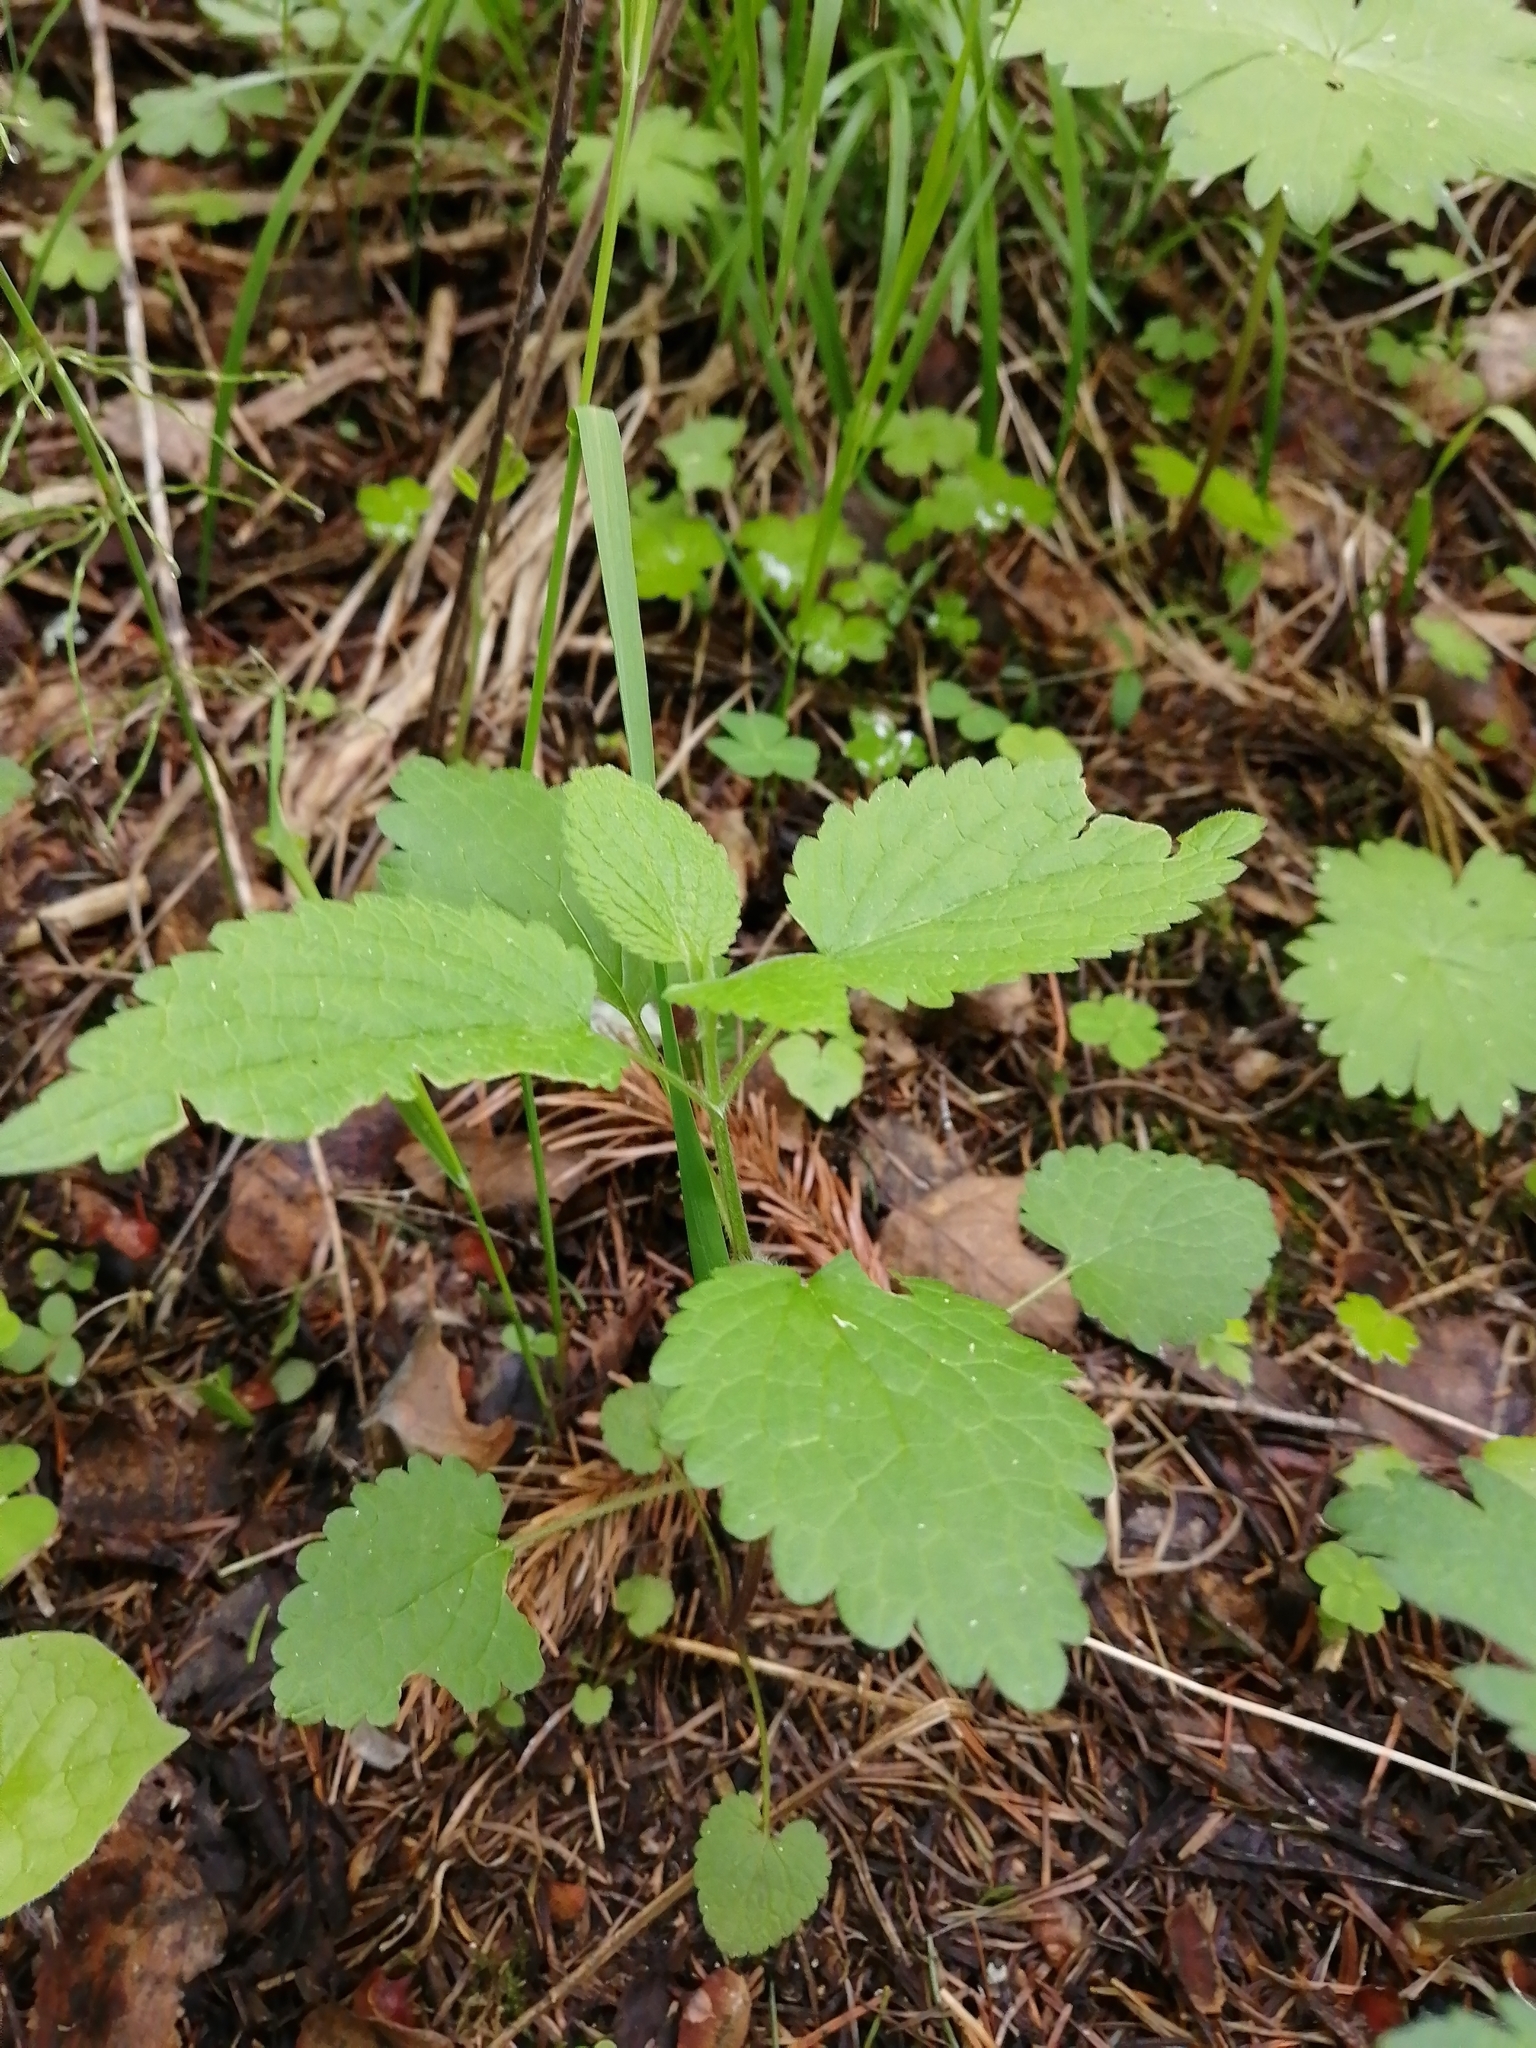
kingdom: Plantae
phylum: Tracheophyta
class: Magnoliopsida
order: Lamiales
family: Lamiaceae
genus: Lamium
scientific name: Lamium album
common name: White dead-nettle
